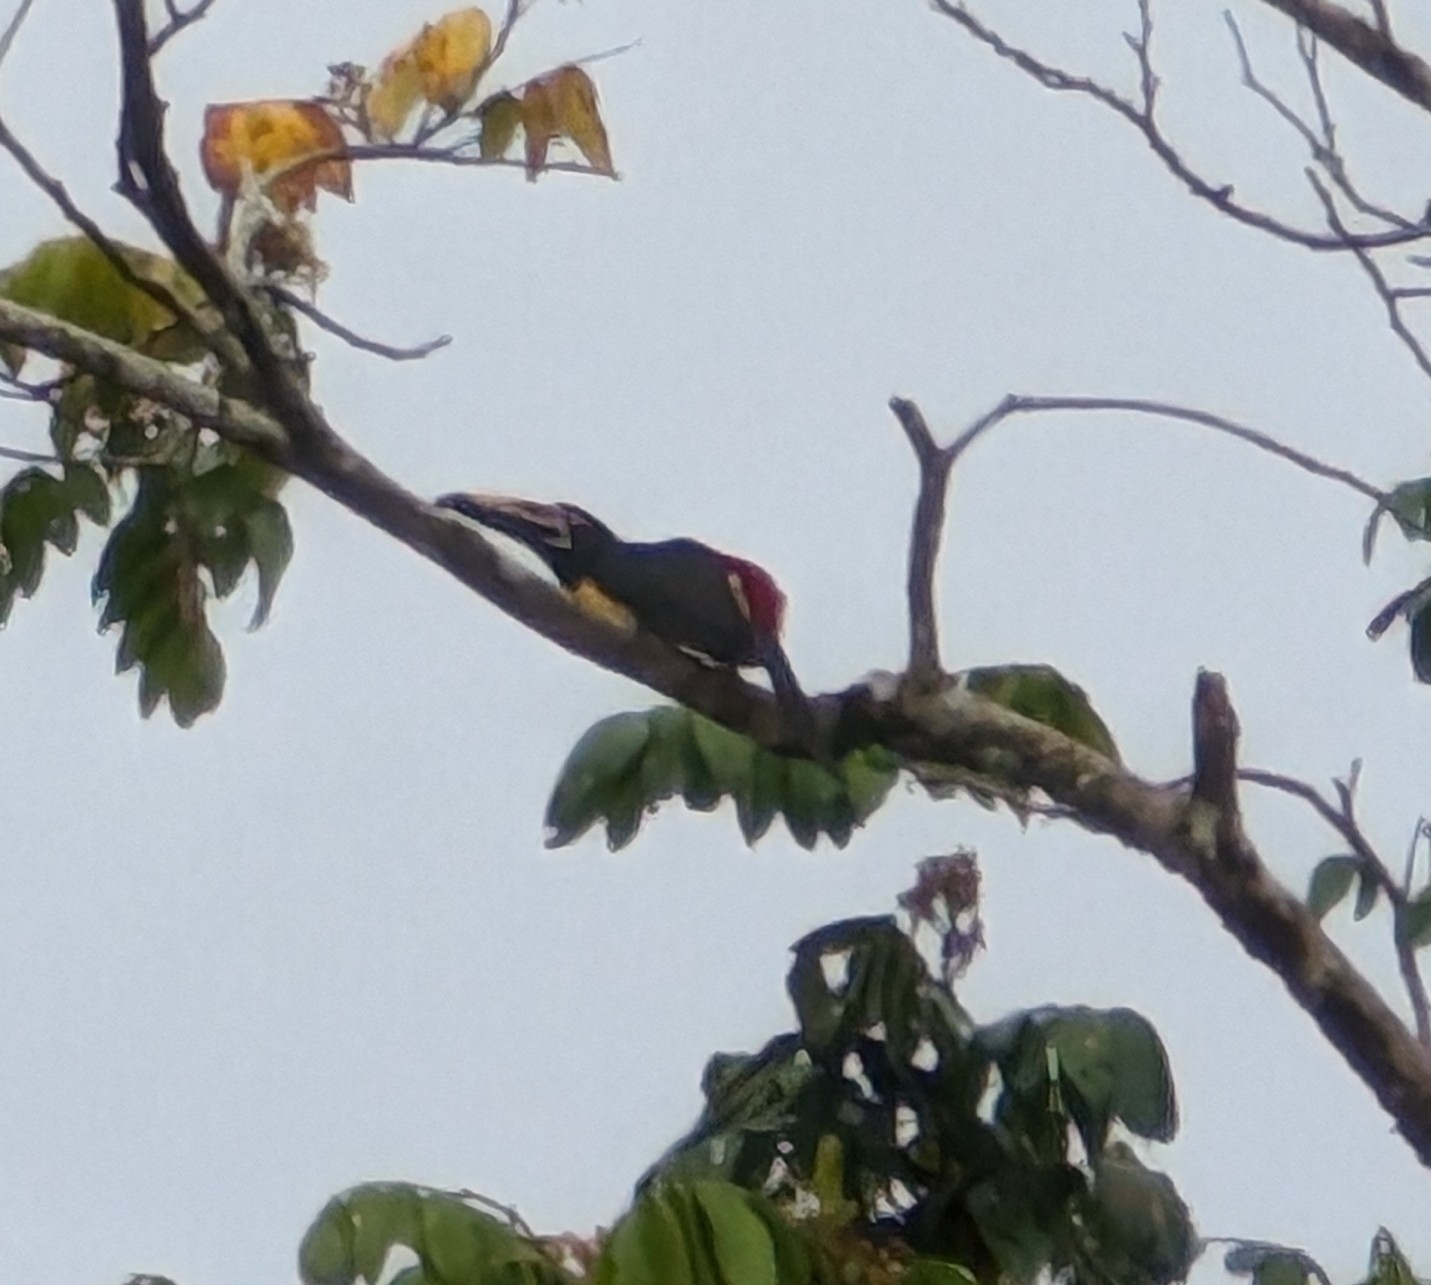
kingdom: Animalia
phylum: Chordata
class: Aves
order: Piciformes
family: Ramphastidae
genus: Pteroglossus
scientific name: Pteroglossus torquatus
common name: Collared aracari
